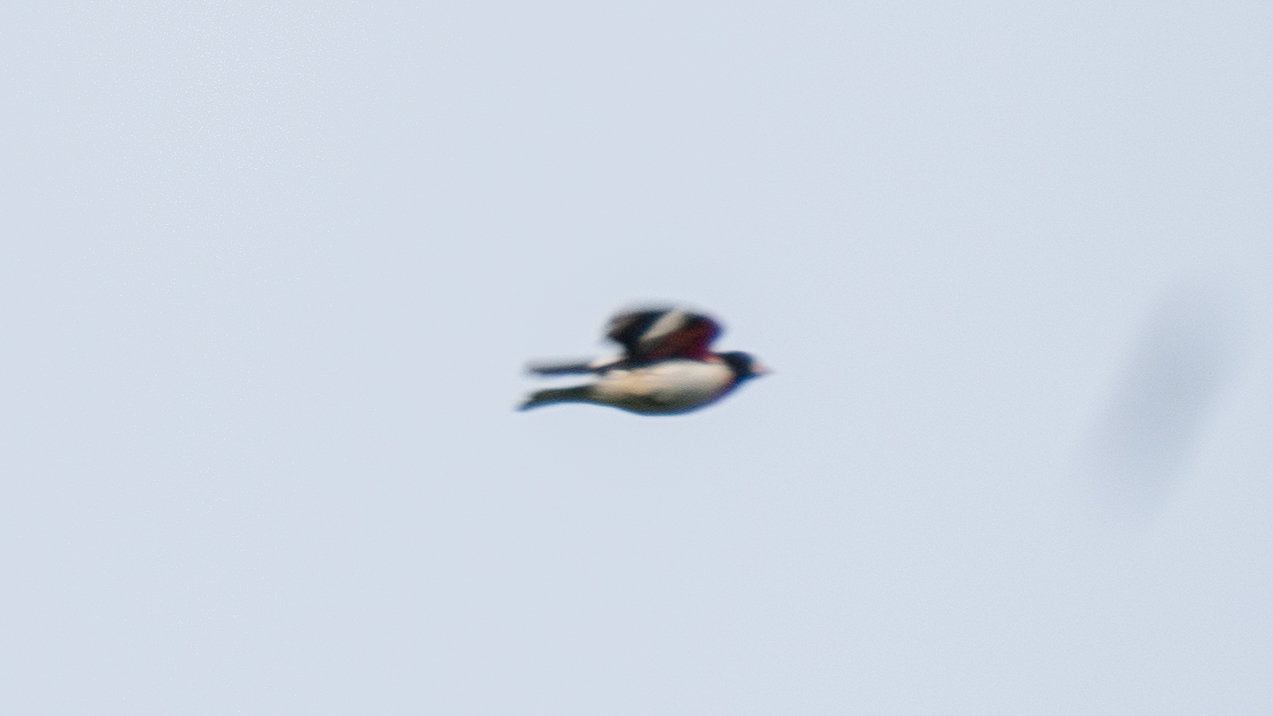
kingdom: Animalia
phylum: Chordata
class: Aves
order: Passeriformes
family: Cardinalidae
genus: Pheucticus
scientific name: Pheucticus ludovicianus
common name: Rose-breasted grosbeak
